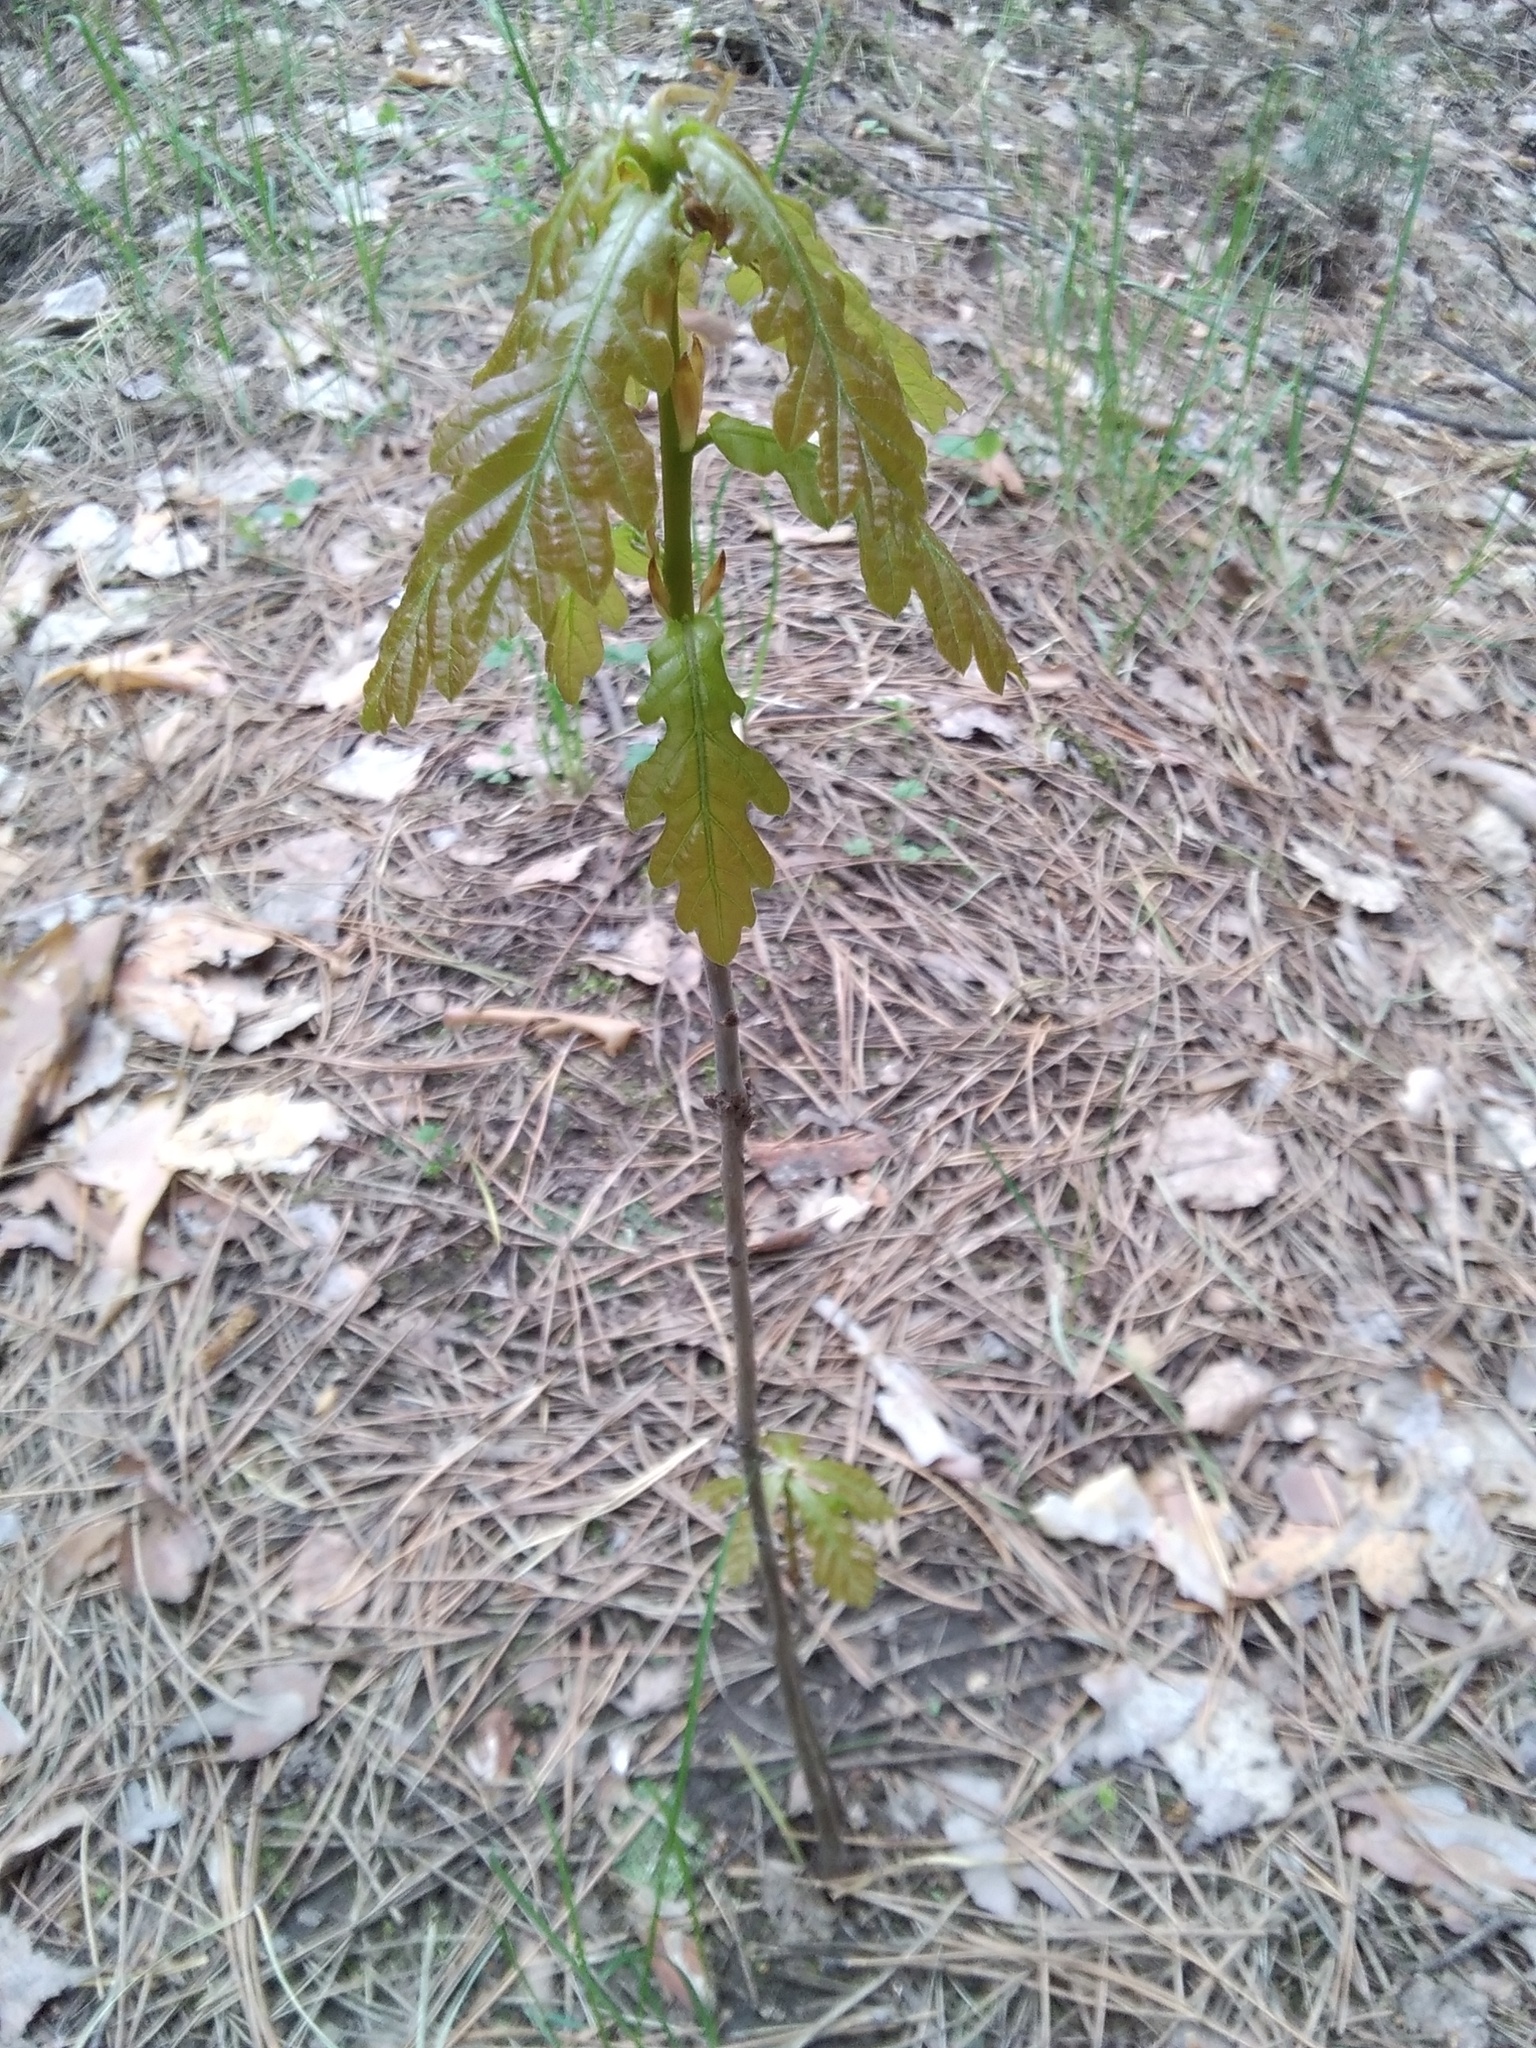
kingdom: Plantae
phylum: Tracheophyta
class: Magnoliopsida
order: Fagales
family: Fagaceae
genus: Quercus
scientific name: Quercus robur
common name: Pedunculate oak
